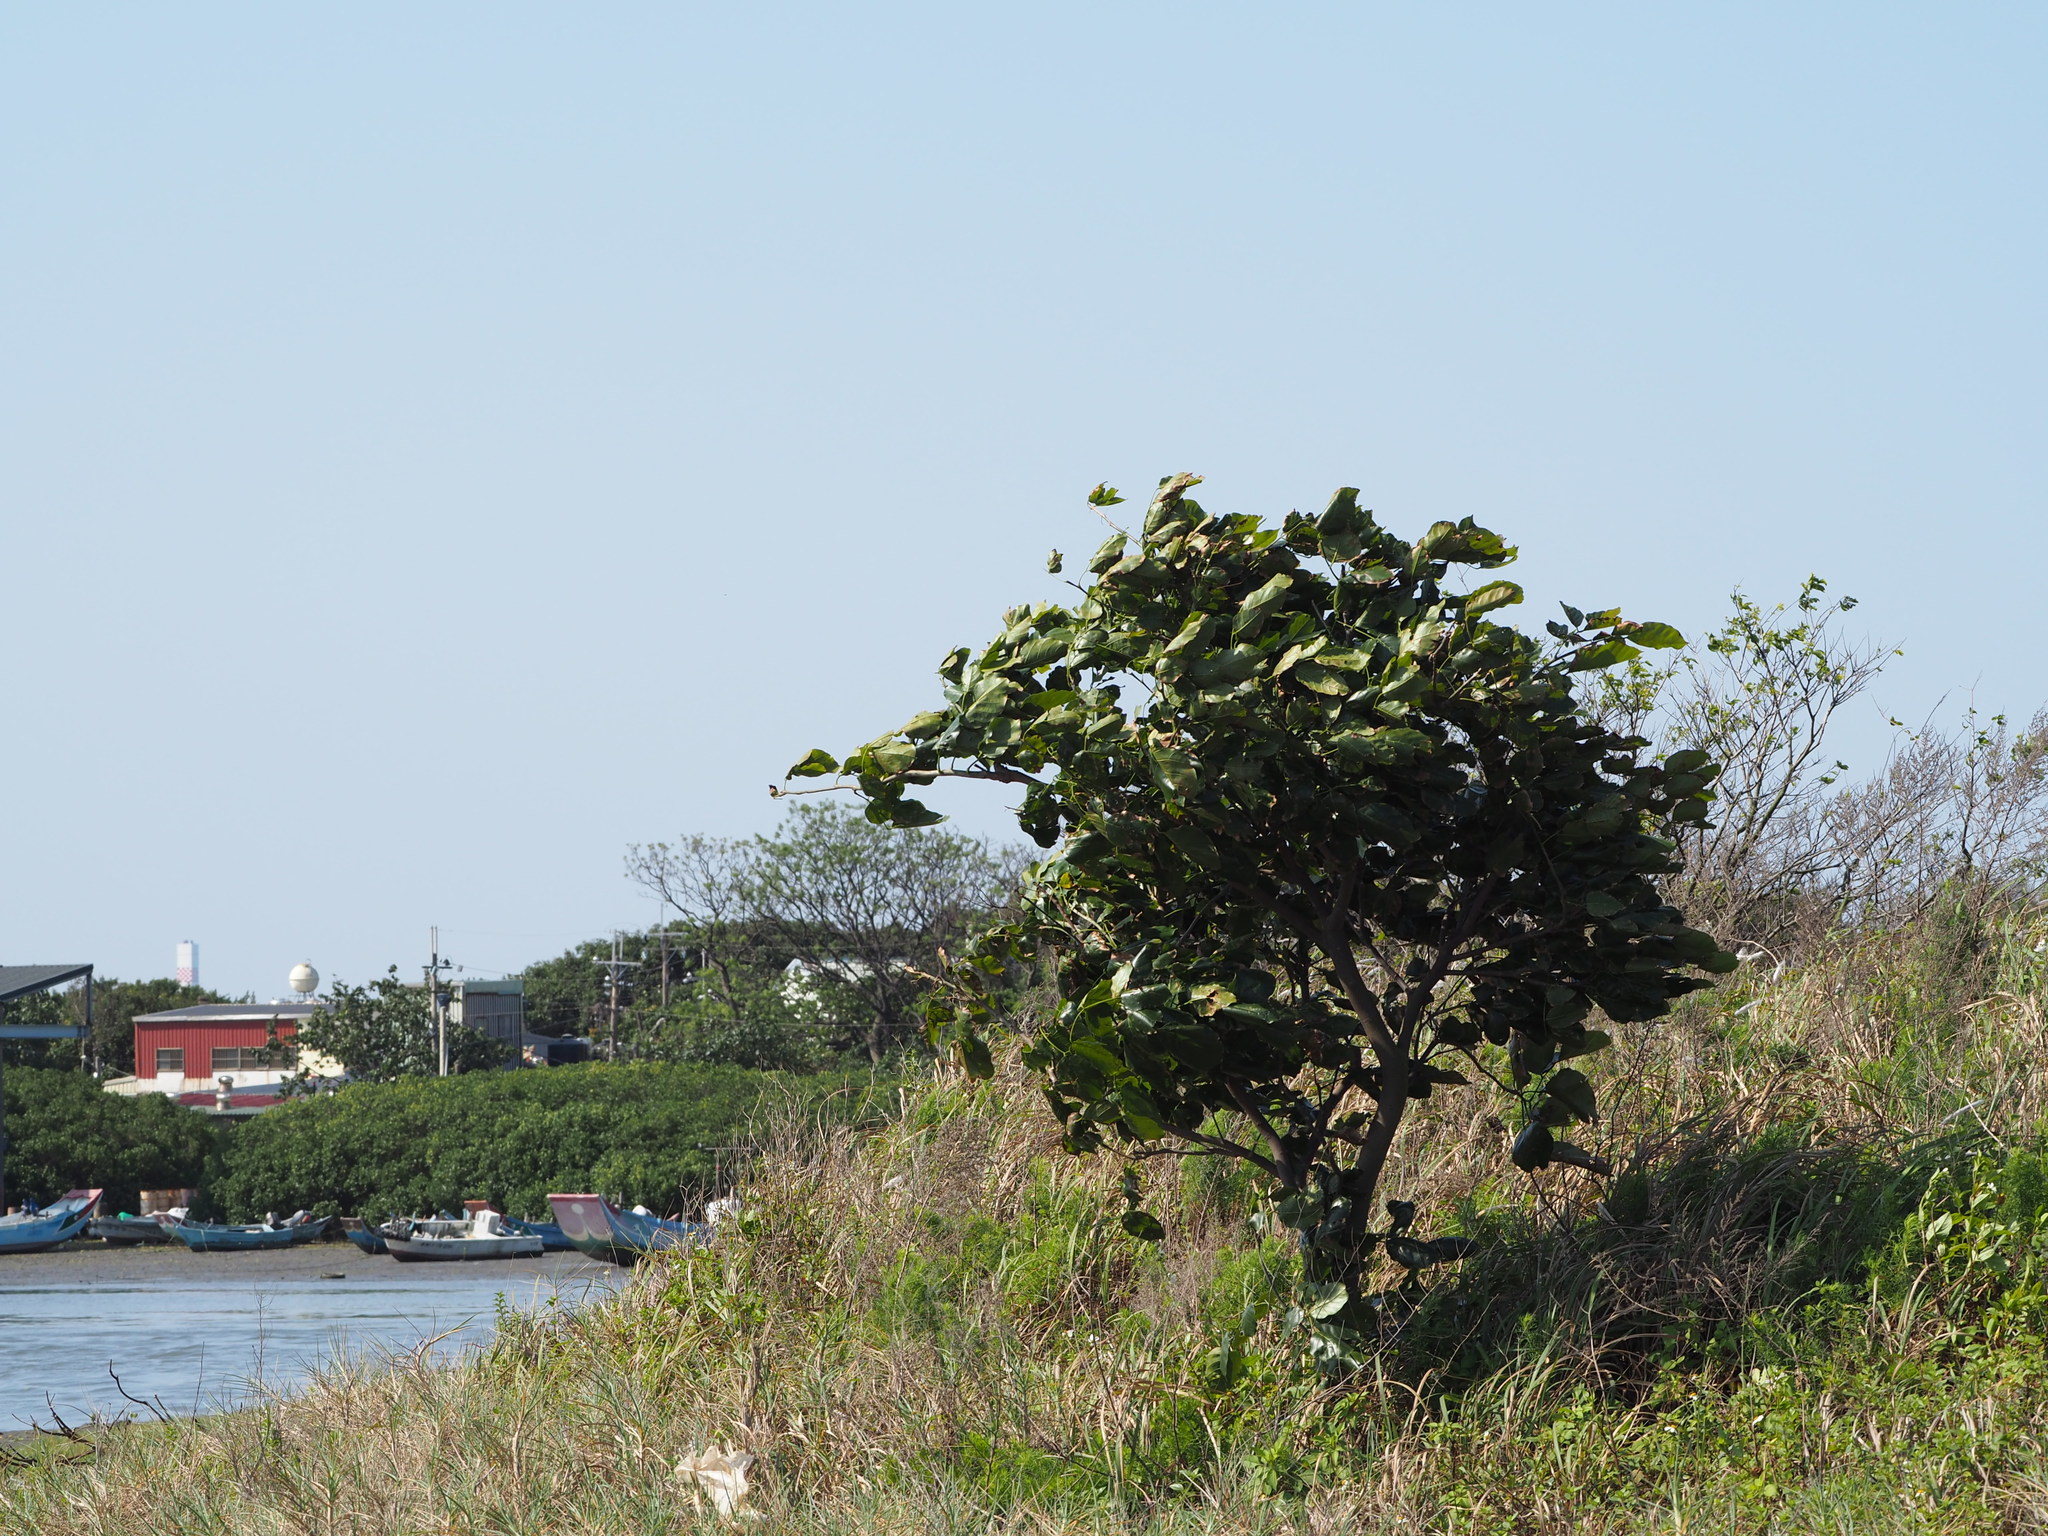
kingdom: Plantae
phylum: Tracheophyta
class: Magnoliopsida
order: Fabales
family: Fabaceae
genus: Pongamia
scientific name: Pongamia pinnata
